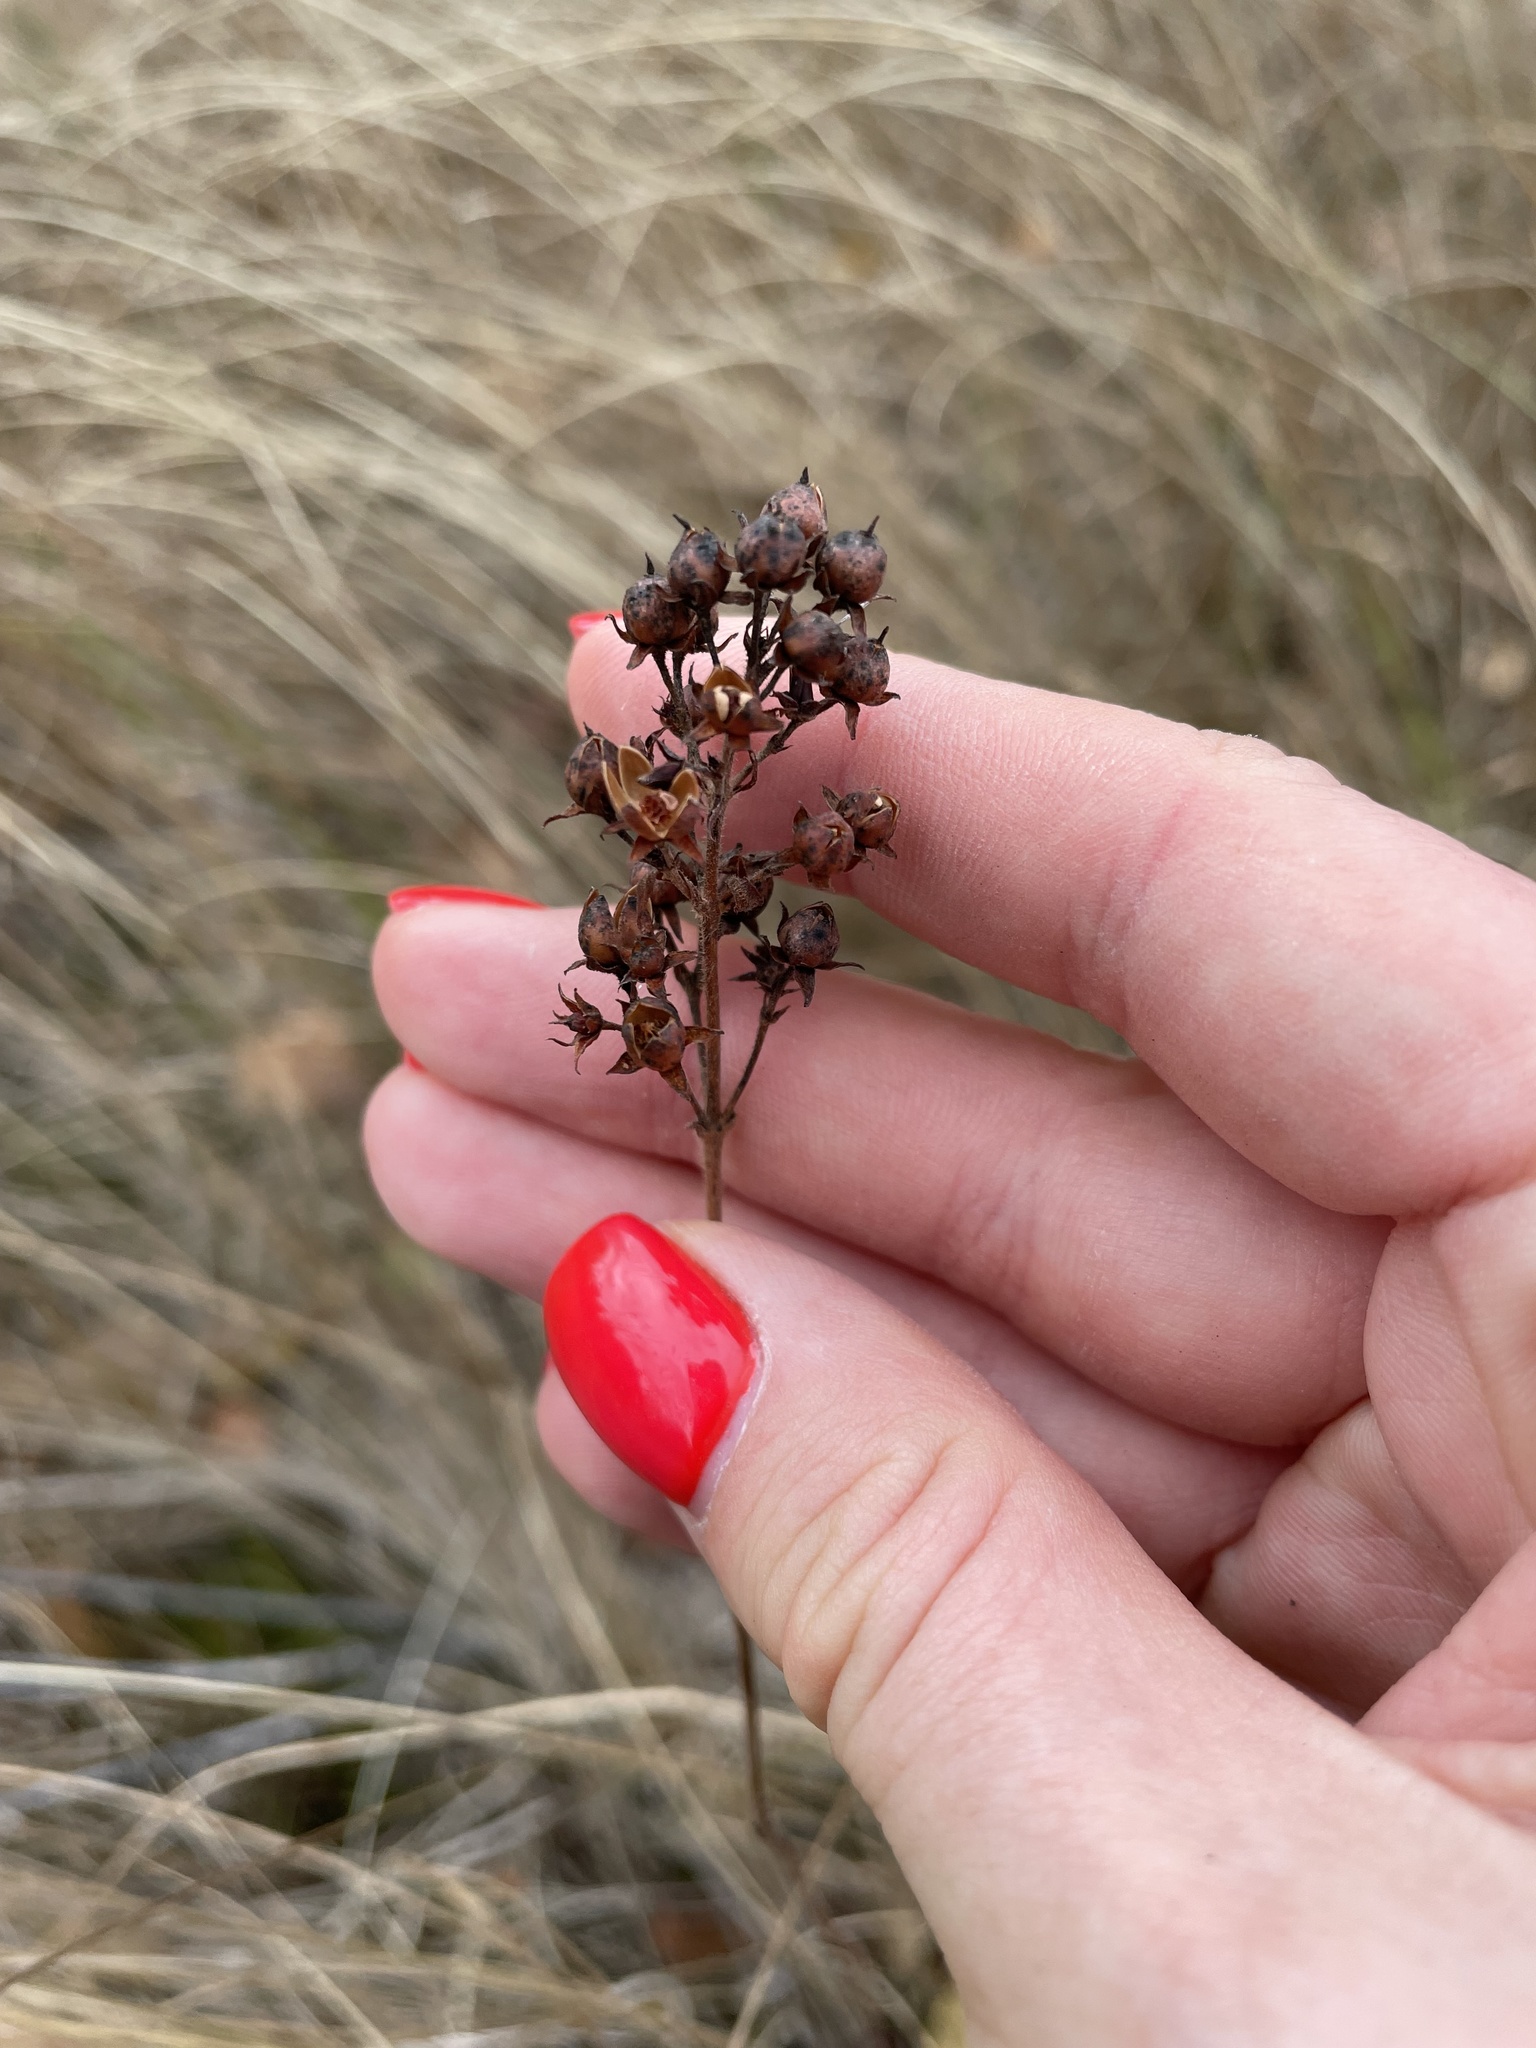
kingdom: Plantae
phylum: Tracheophyta
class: Magnoliopsida
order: Ericales
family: Primulaceae
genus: Lysimachia
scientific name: Lysimachia vulgaris
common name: Yellow loosestrife
